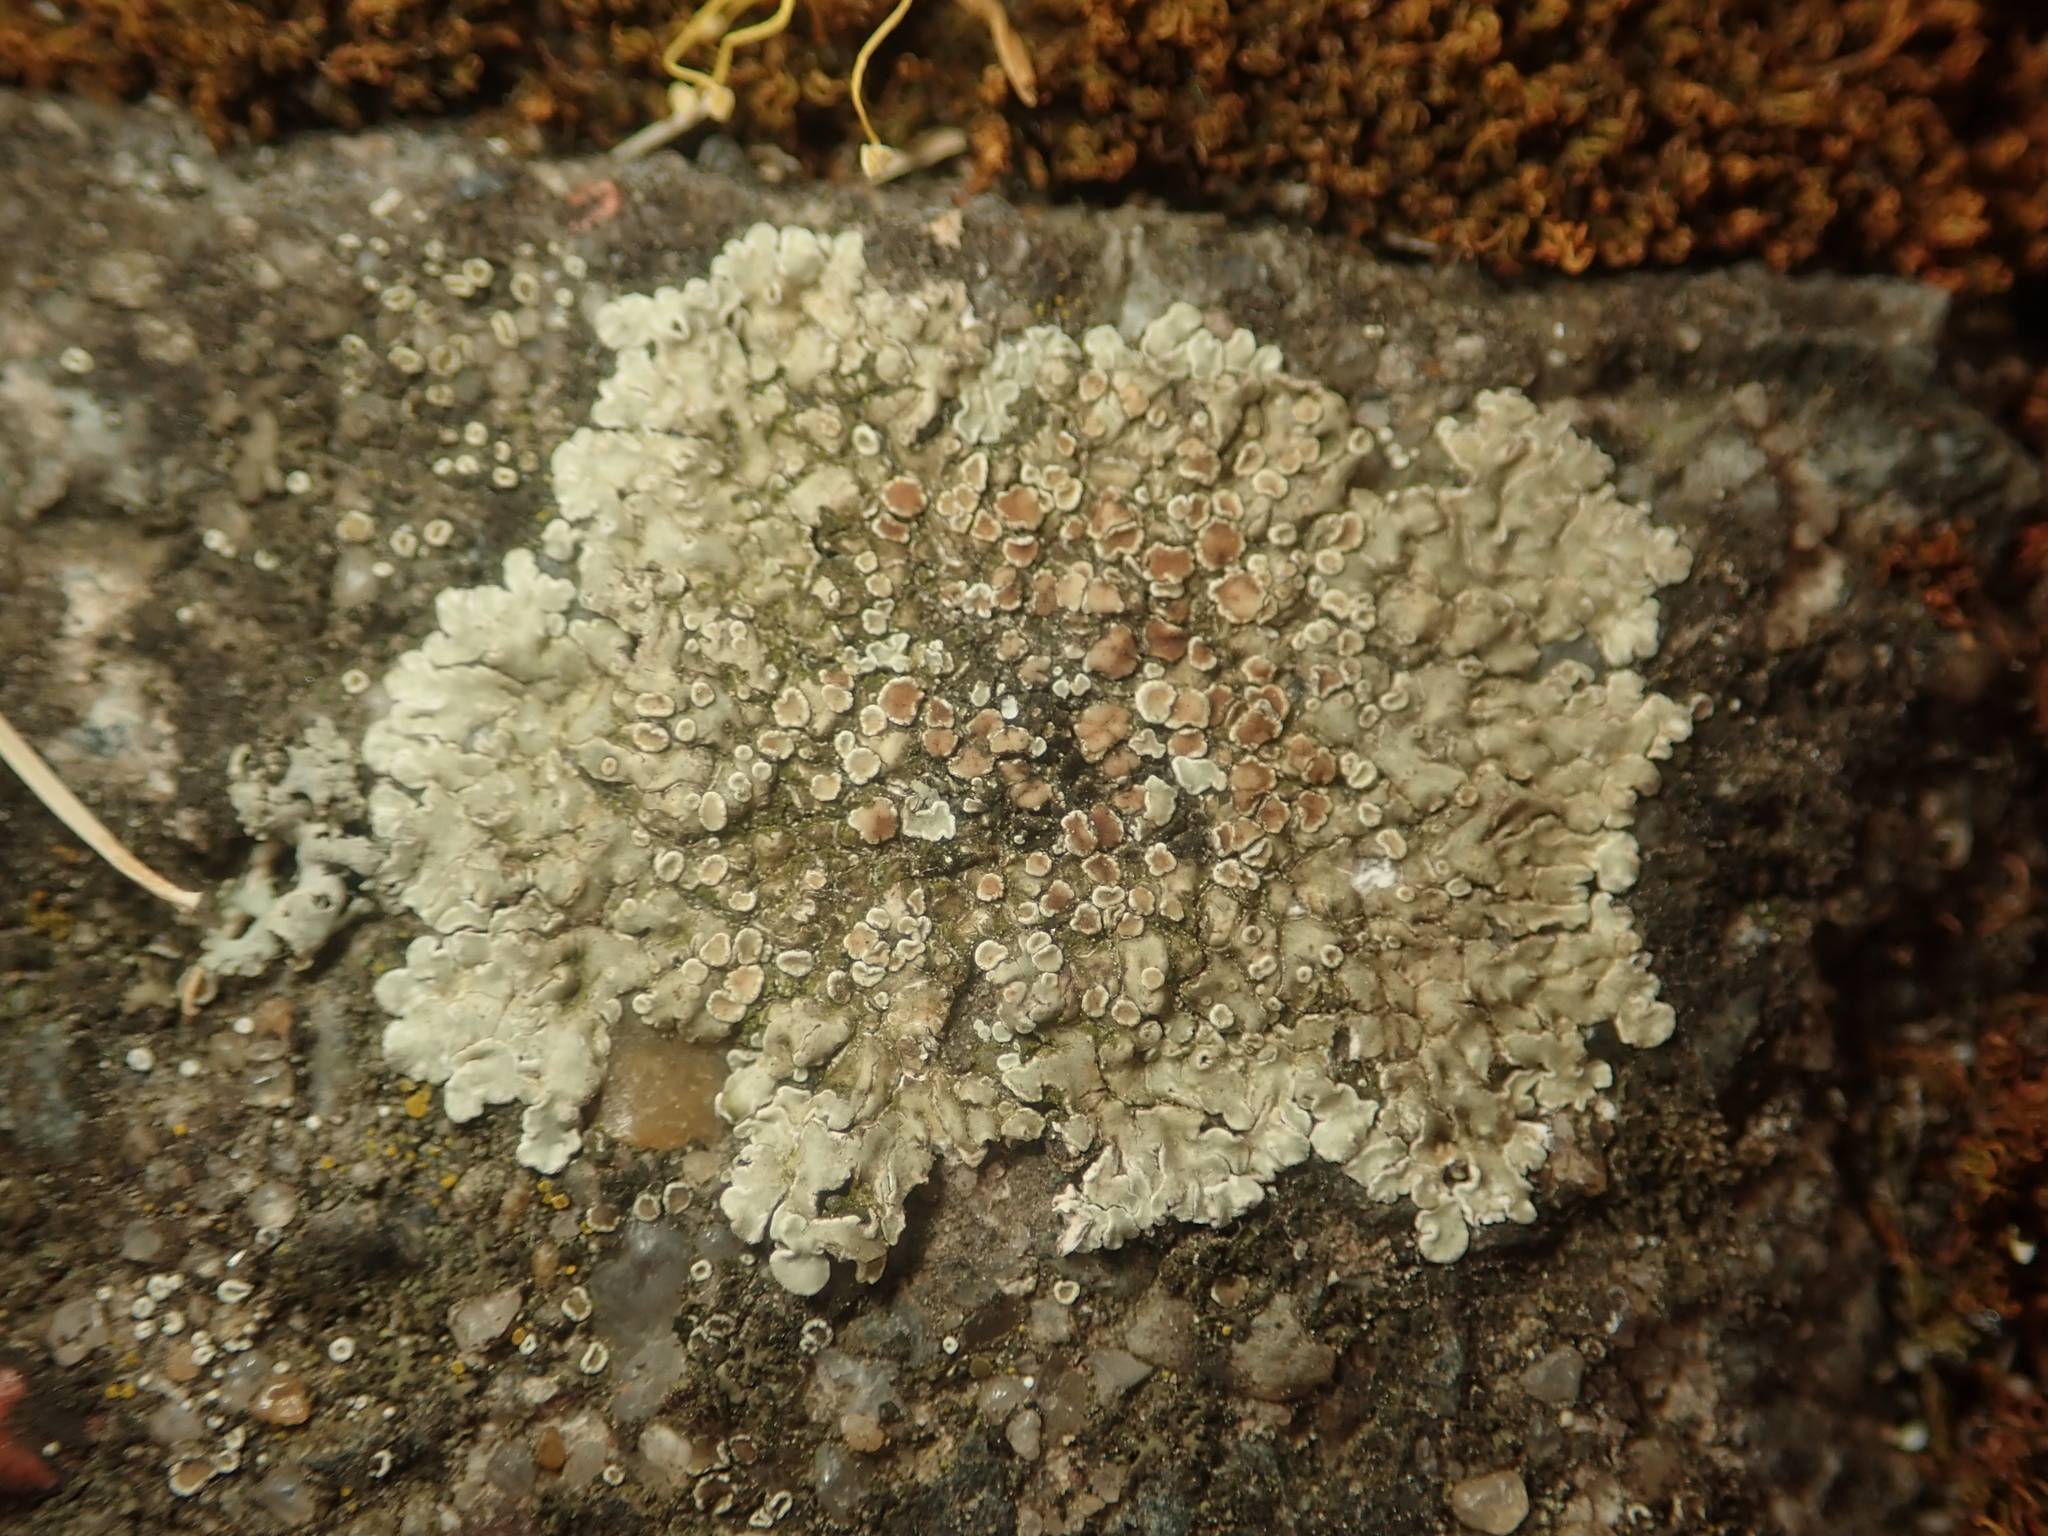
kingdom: Fungi
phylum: Ascomycota
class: Lecanoromycetes
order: Lecanorales
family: Lecanoraceae
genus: Protoparmeliopsis
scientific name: Protoparmeliopsis muralis
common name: Stonewall rim lichen
